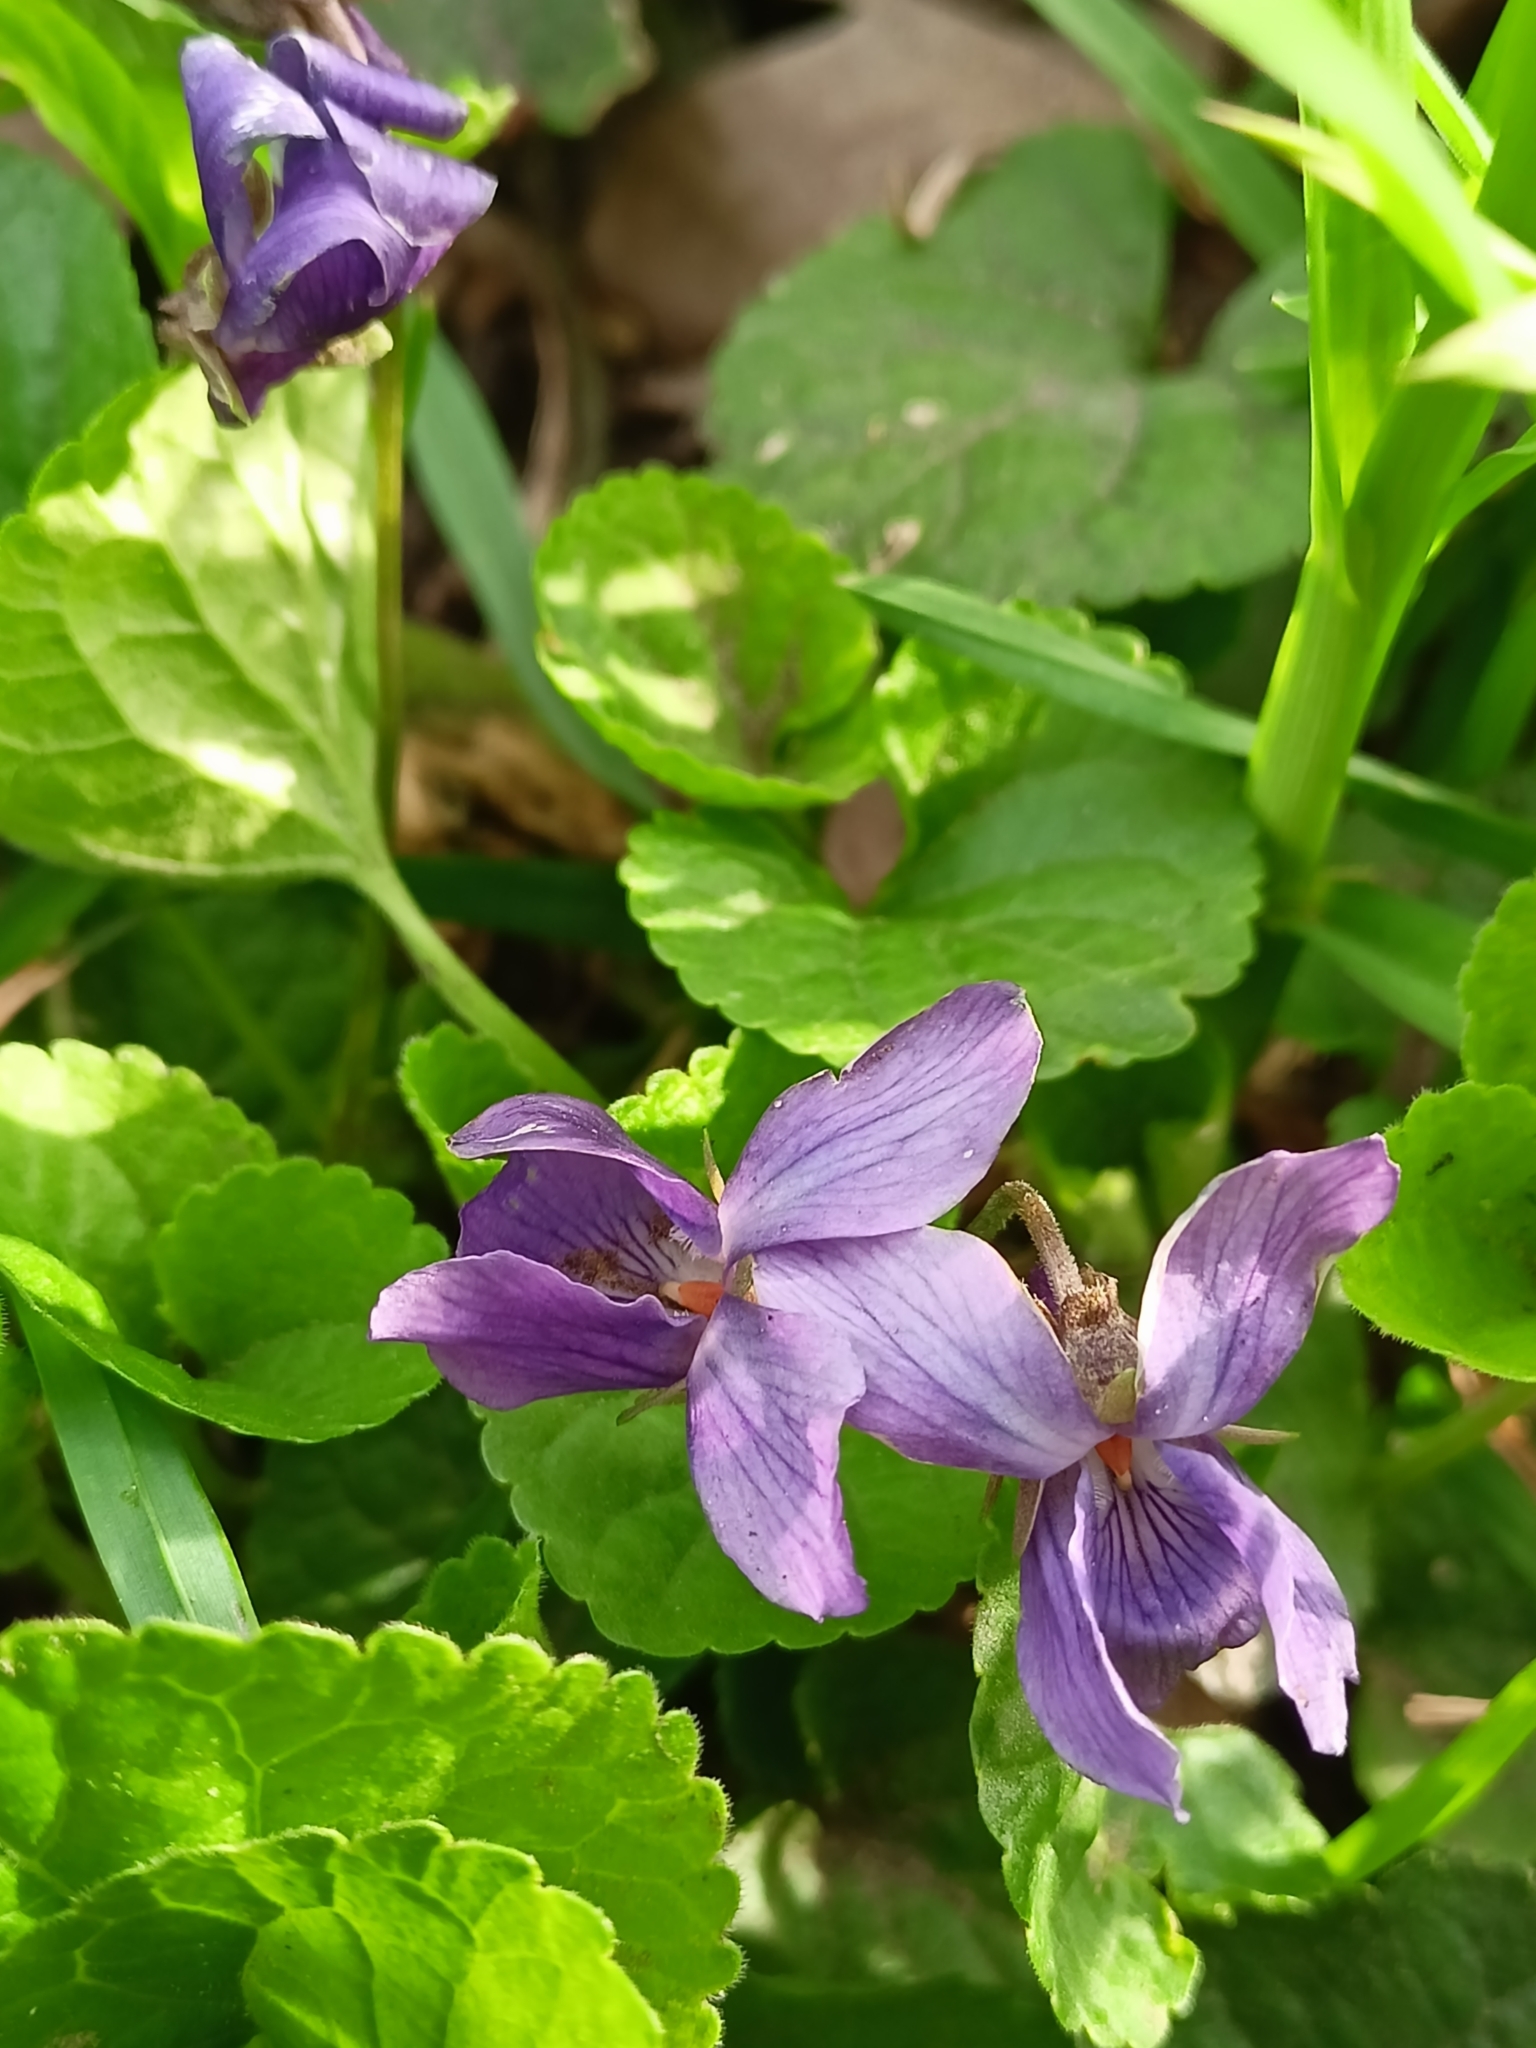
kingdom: Plantae
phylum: Tracheophyta
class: Magnoliopsida
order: Malpighiales
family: Violaceae
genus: Viola
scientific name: Viola odorata
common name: Sweet violet
